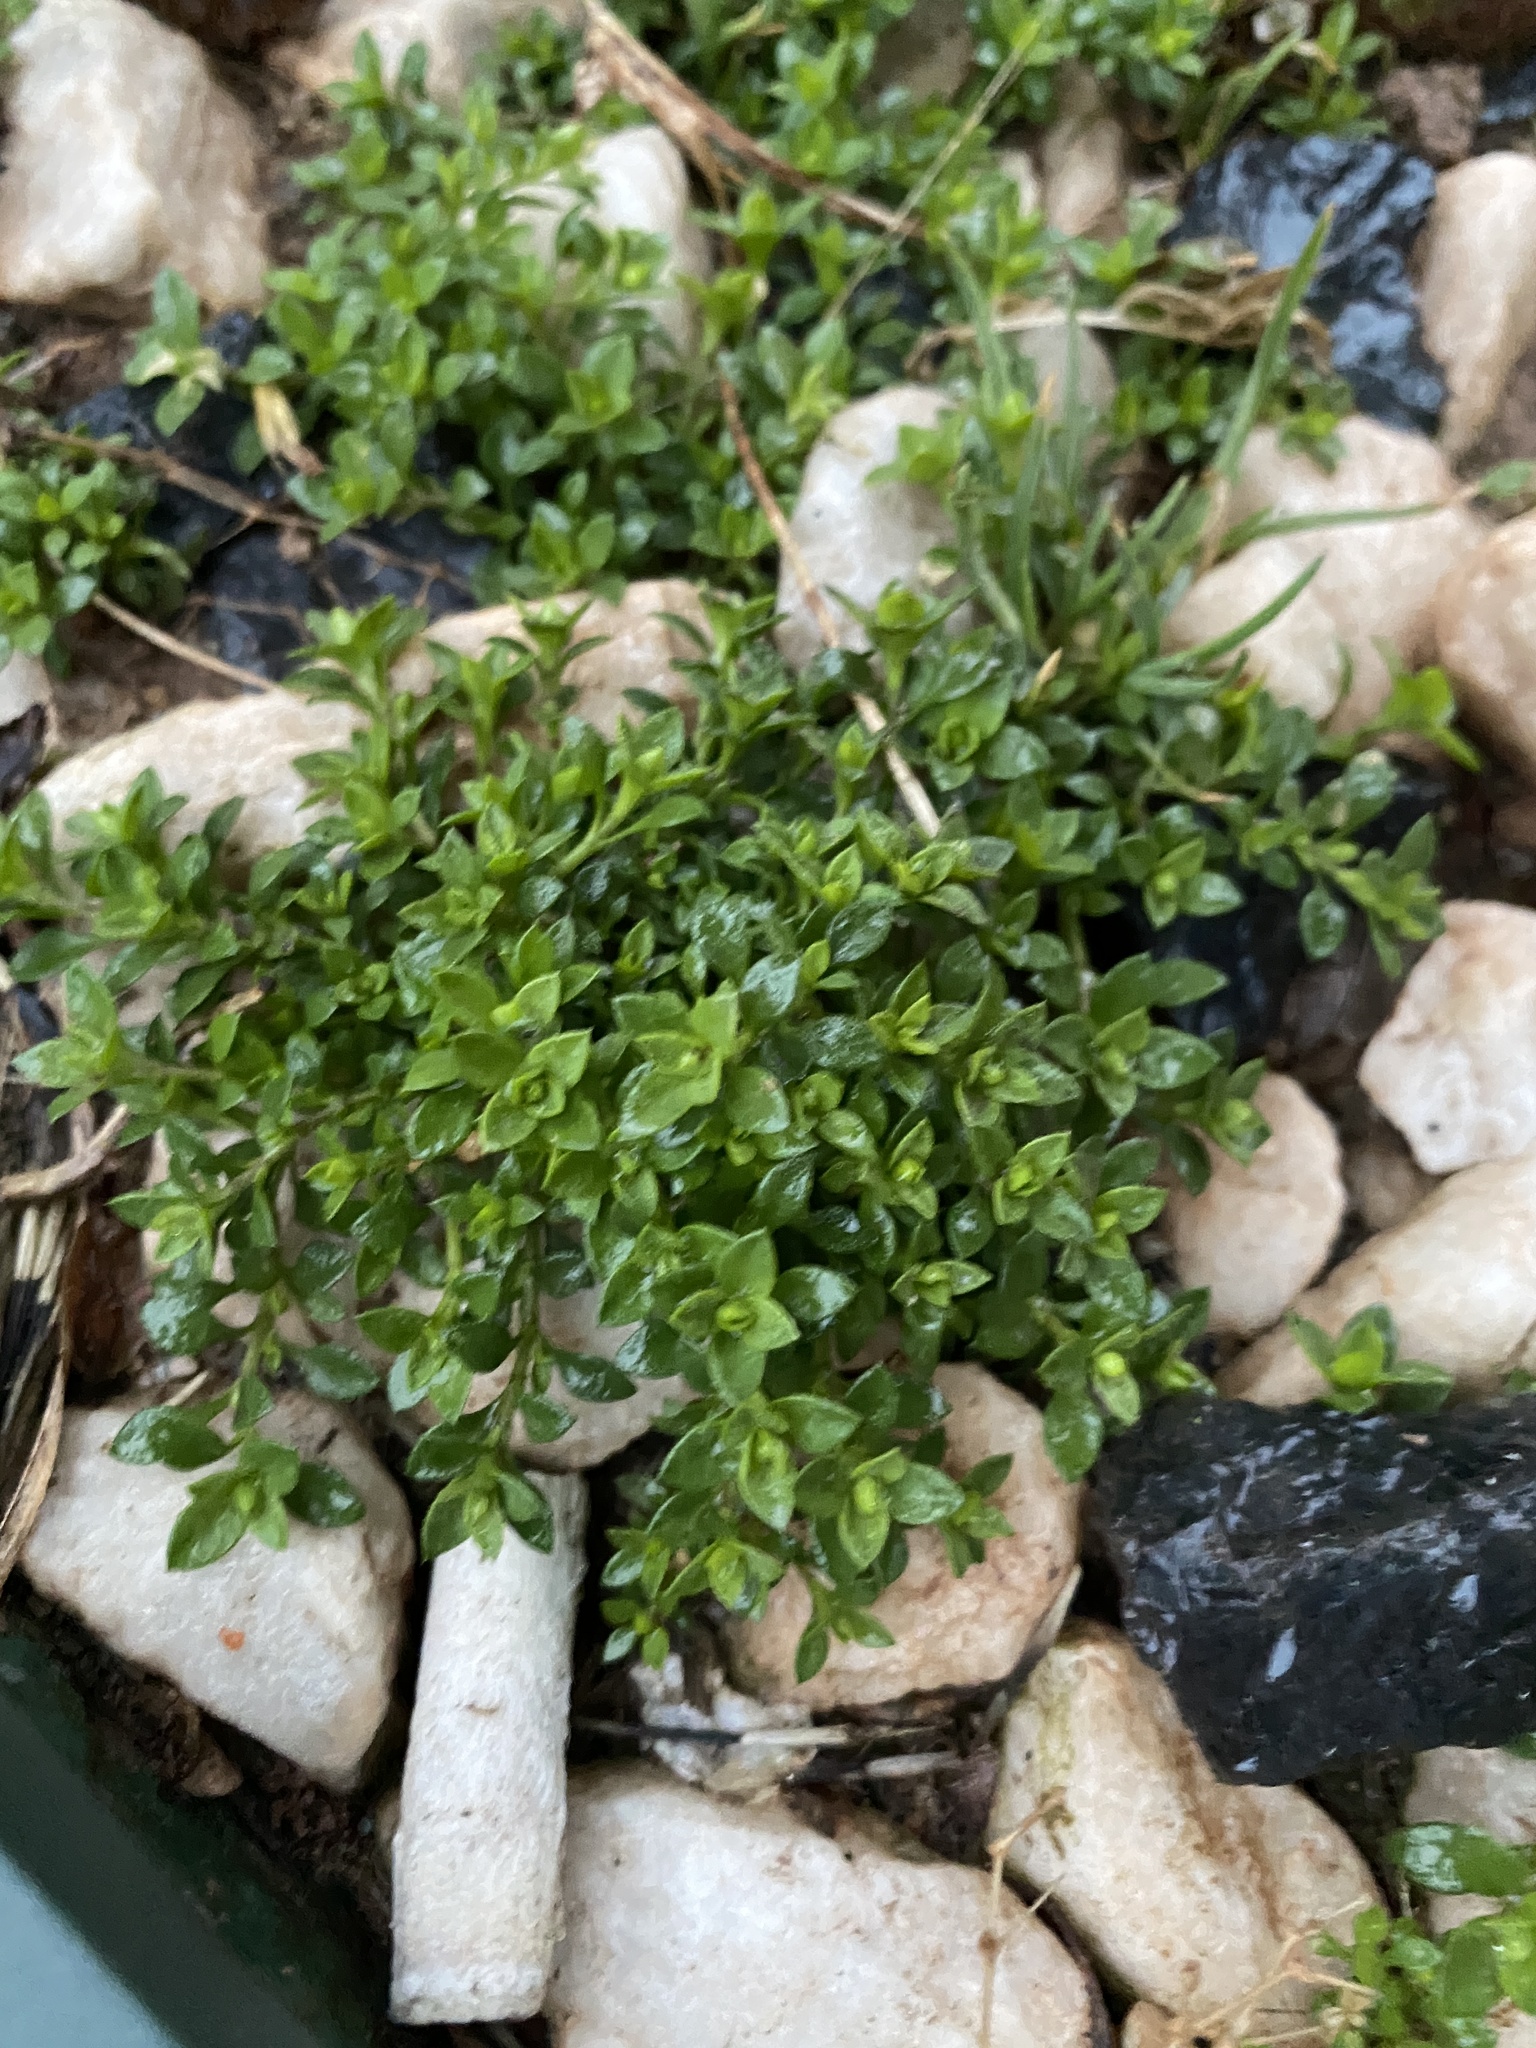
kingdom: Plantae
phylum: Tracheophyta
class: Magnoliopsida
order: Caryophyllales
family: Caryophyllaceae
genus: Stellaria
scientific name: Stellaria media
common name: Common chickweed
